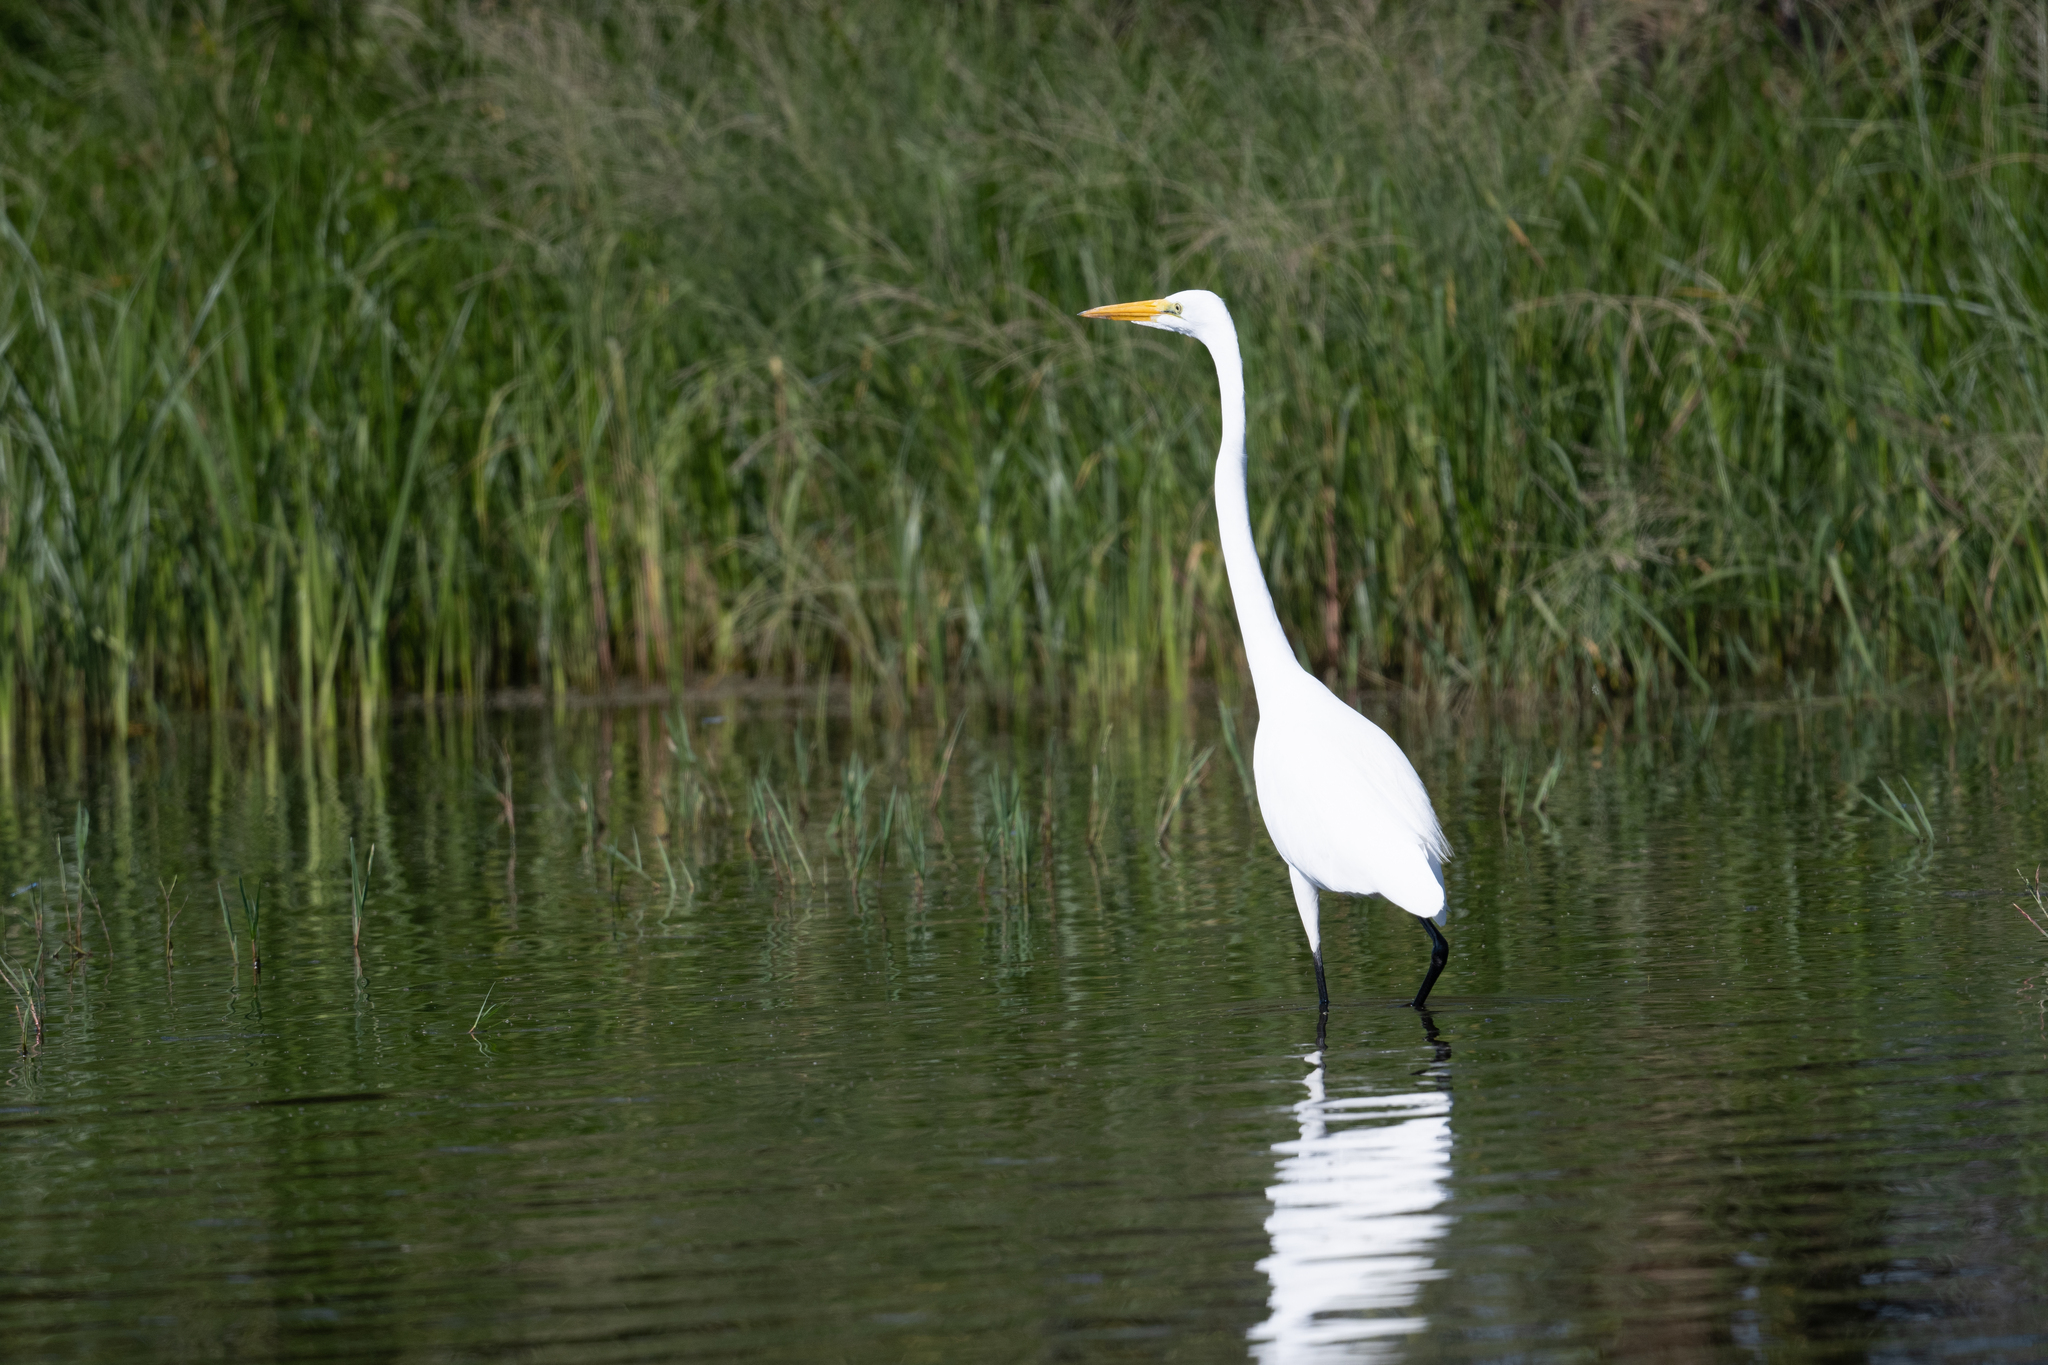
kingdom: Animalia
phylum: Chordata
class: Aves
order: Pelecaniformes
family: Ardeidae
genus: Ardea
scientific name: Ardea alba
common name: Great egret
